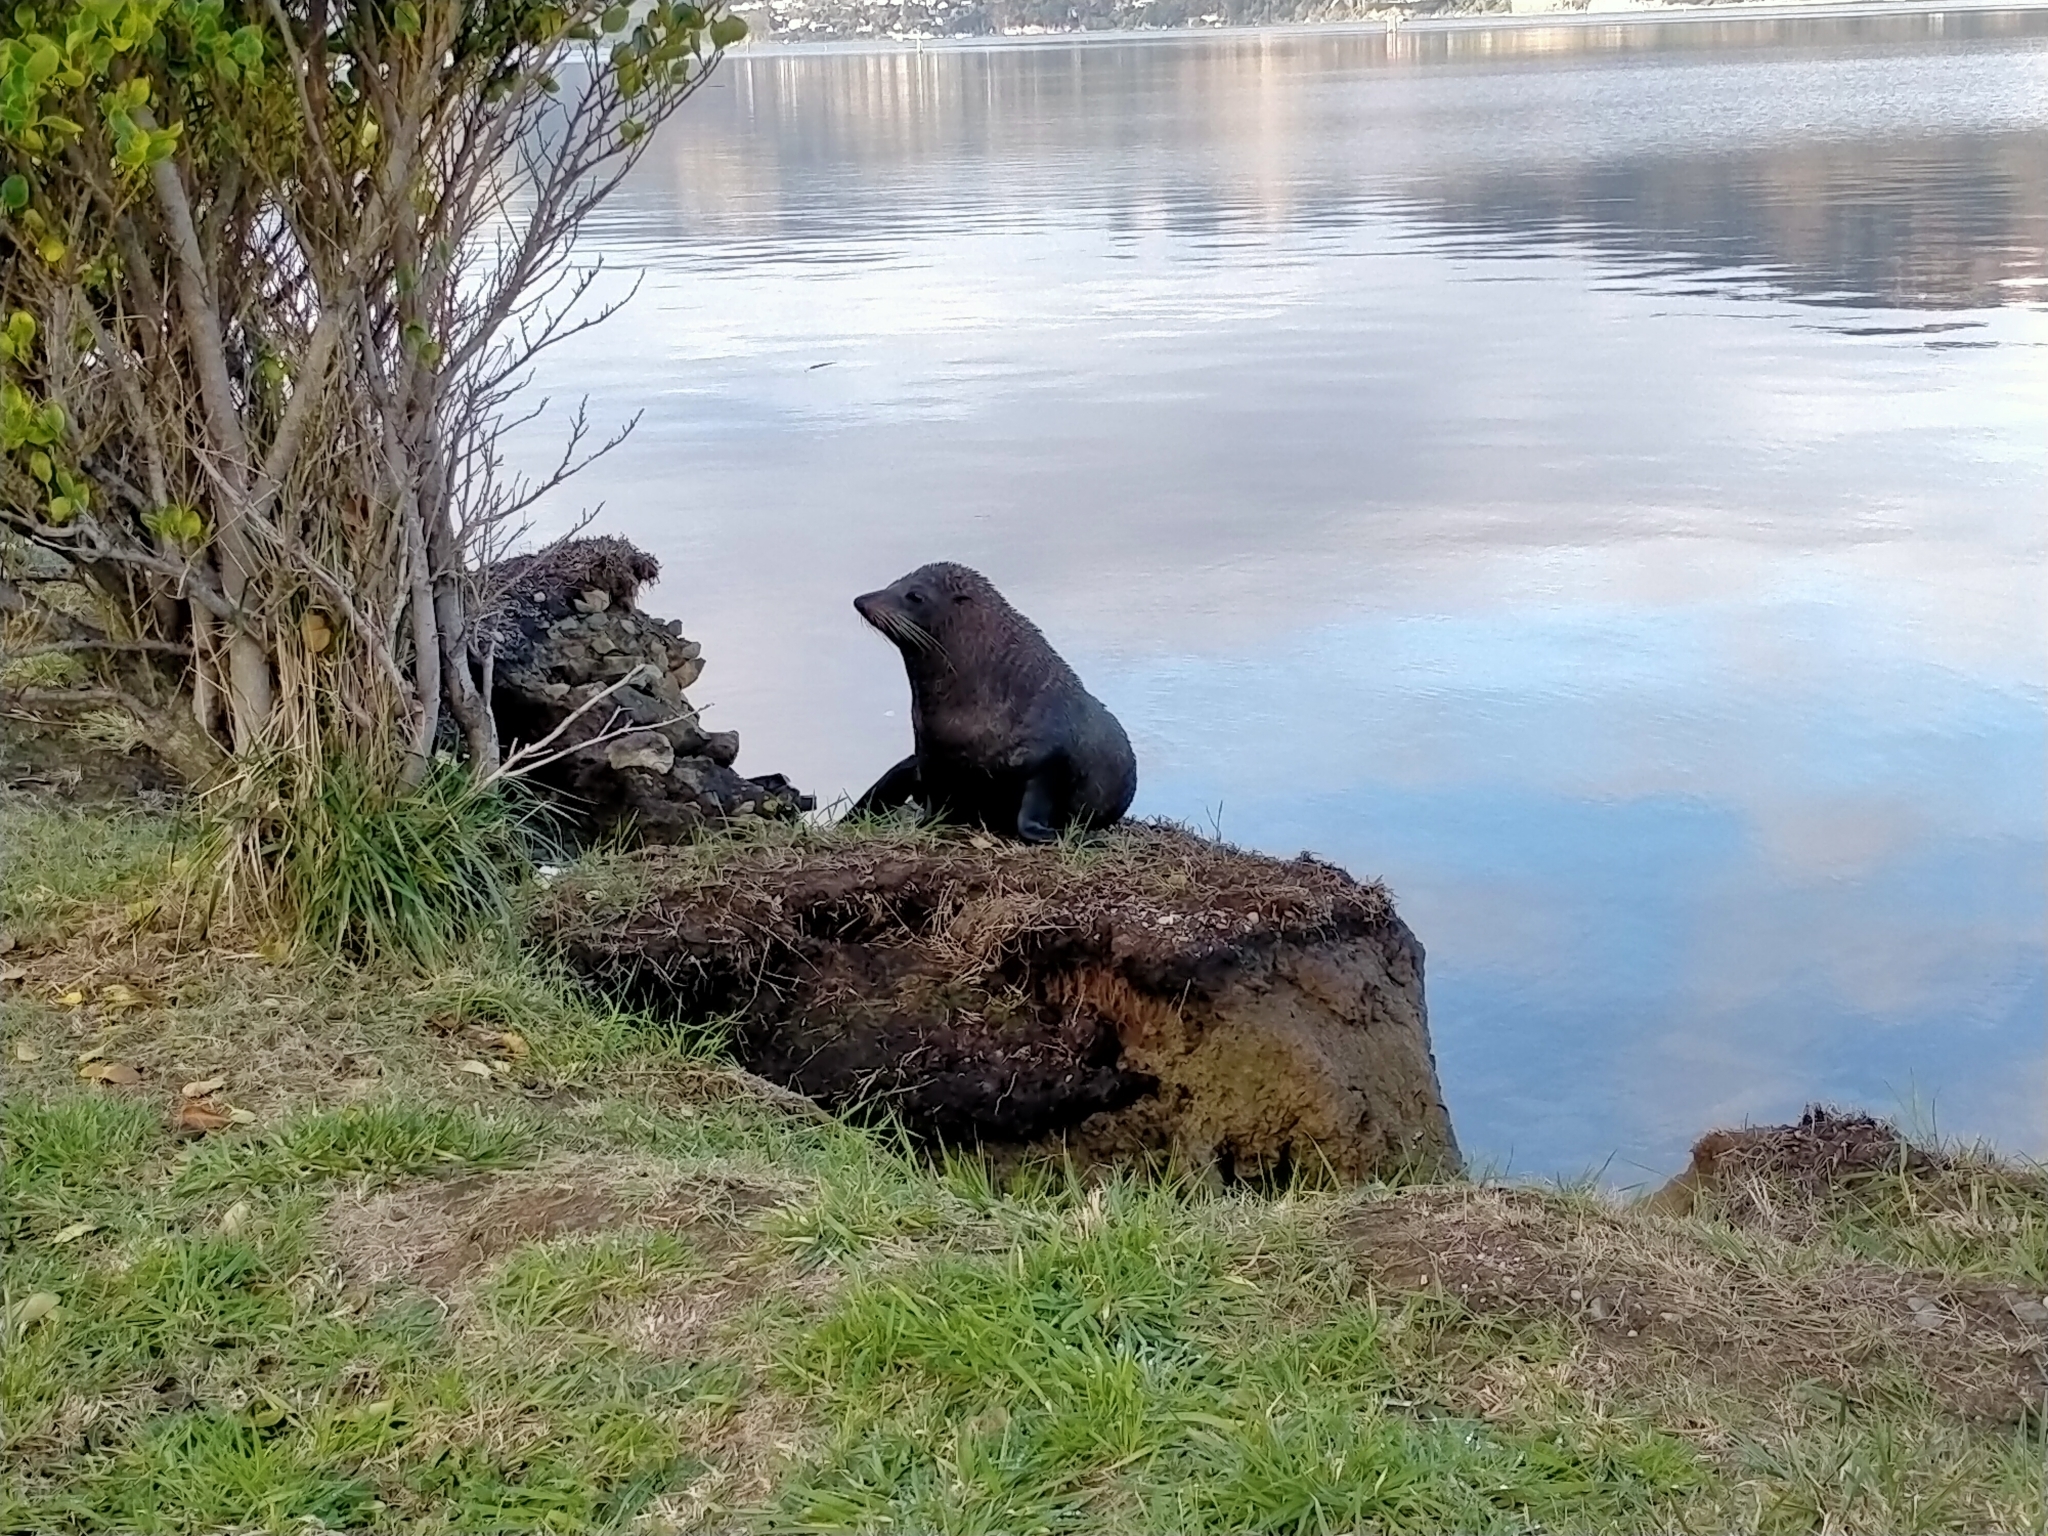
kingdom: Animalia
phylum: Chordata
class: Mammalia
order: Carnivora
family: Otariidae
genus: Arctocephalus
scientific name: Arctocephalus forsteri
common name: New zealand fur seal
